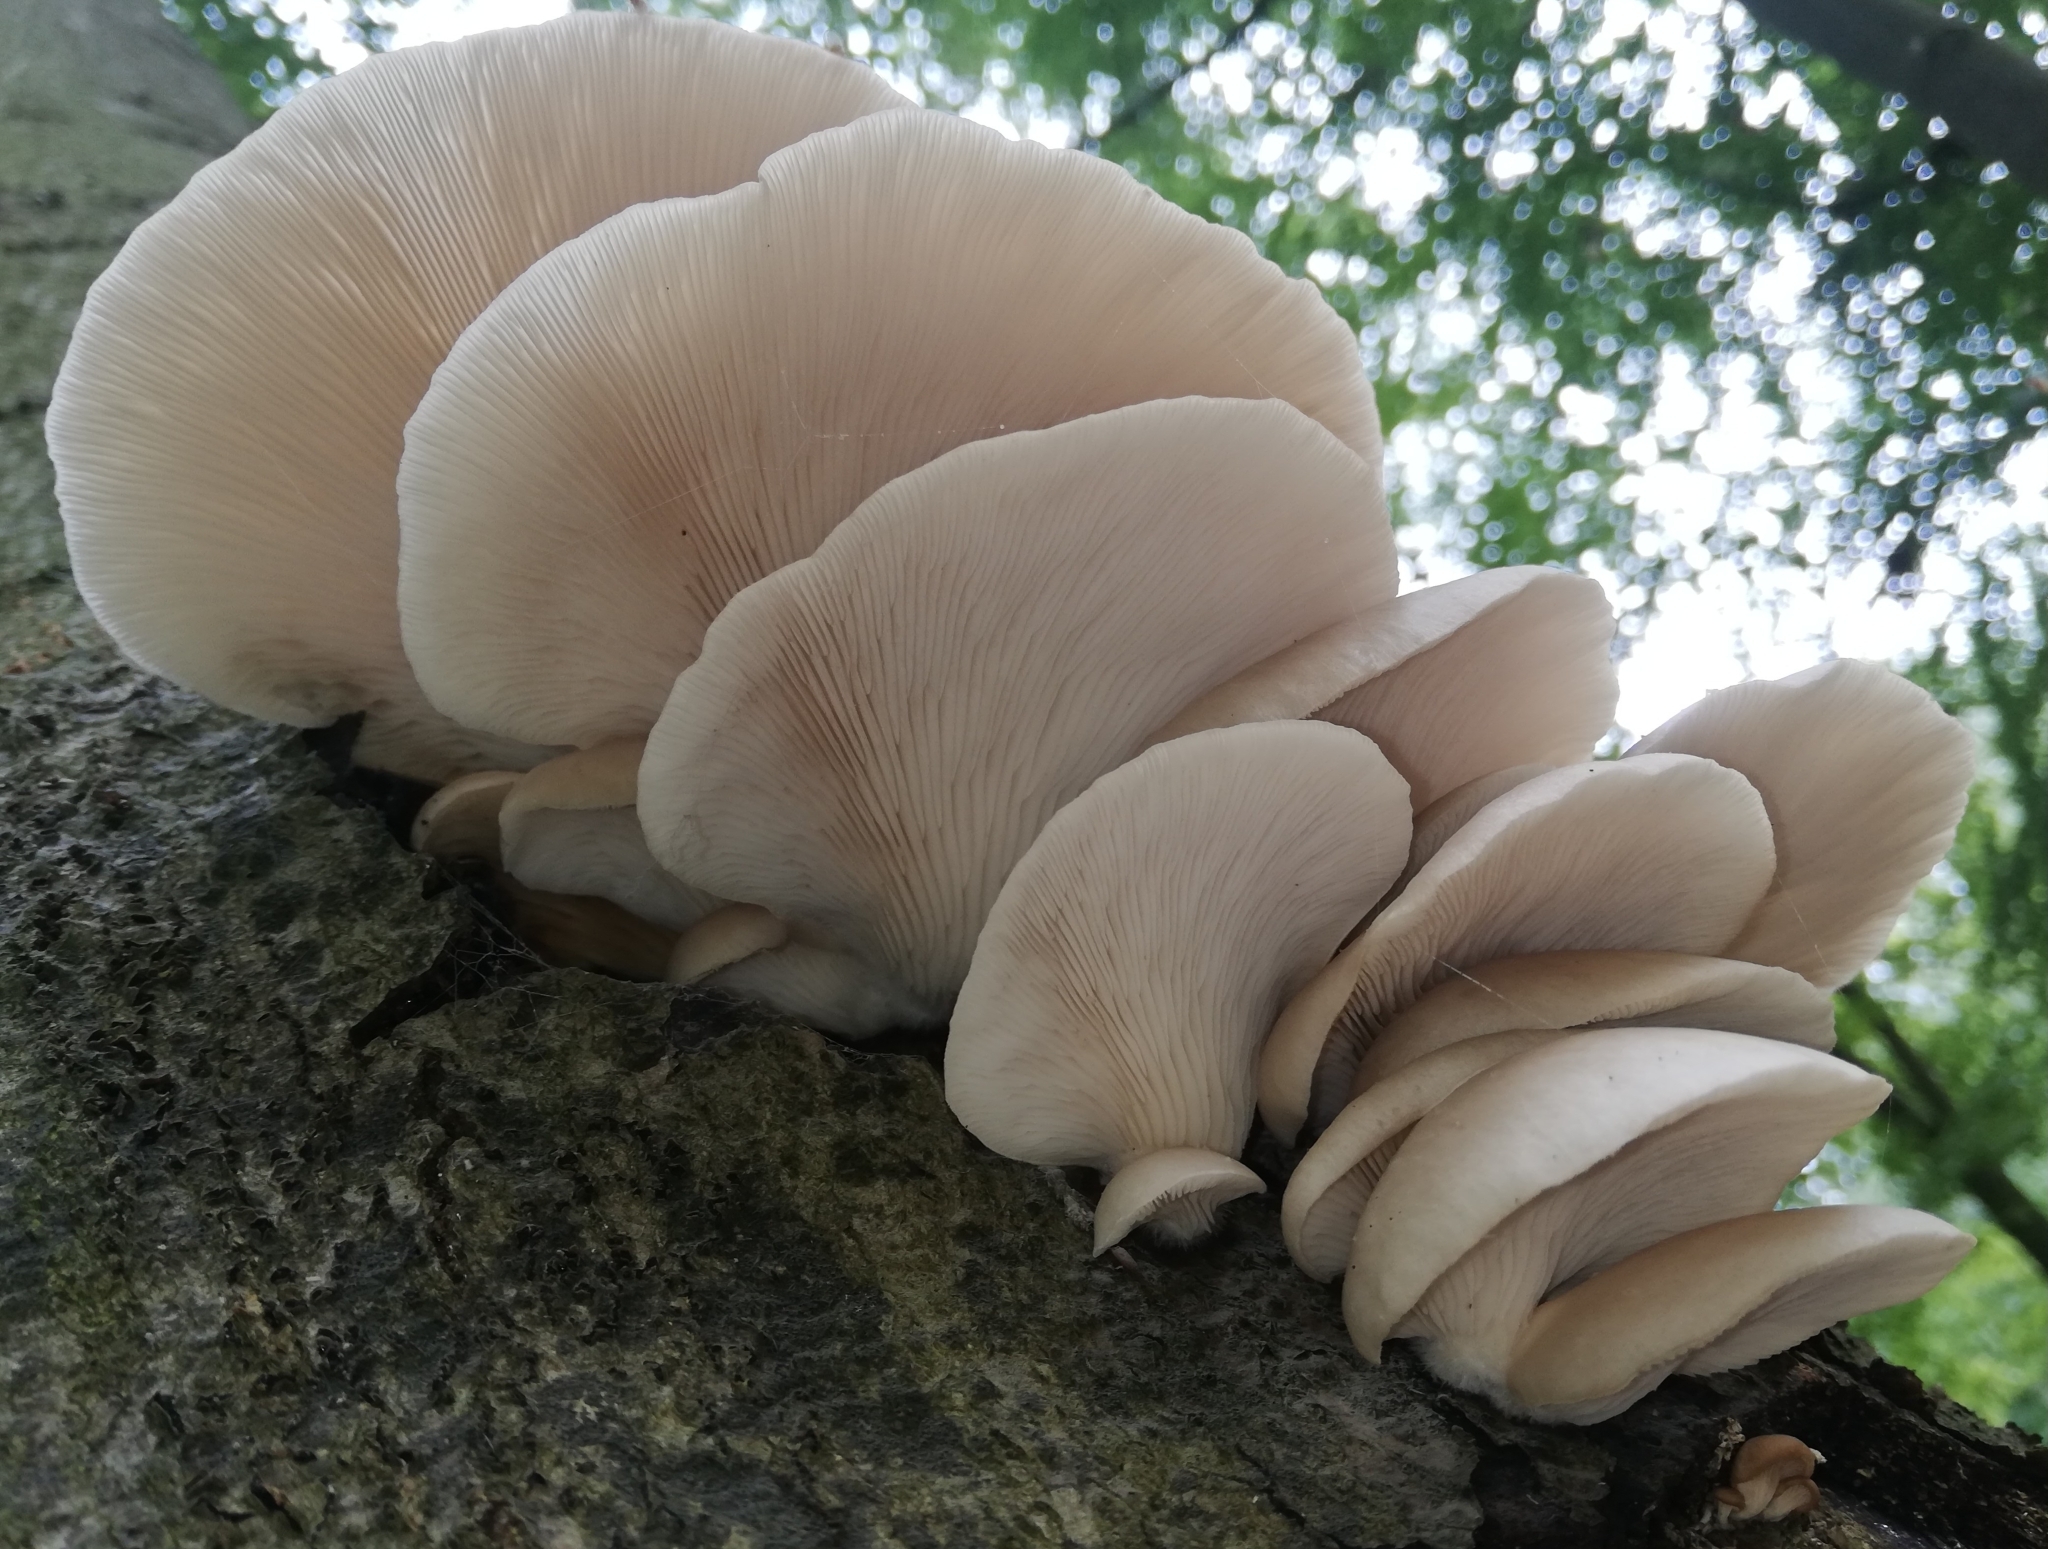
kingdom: Fungi
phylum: Basidiomycota
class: Agaricomycetes
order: Agaricales
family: Pleurotaceae
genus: Pleurotus
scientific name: Pleurotus pulmonarius
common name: Pale oyster
